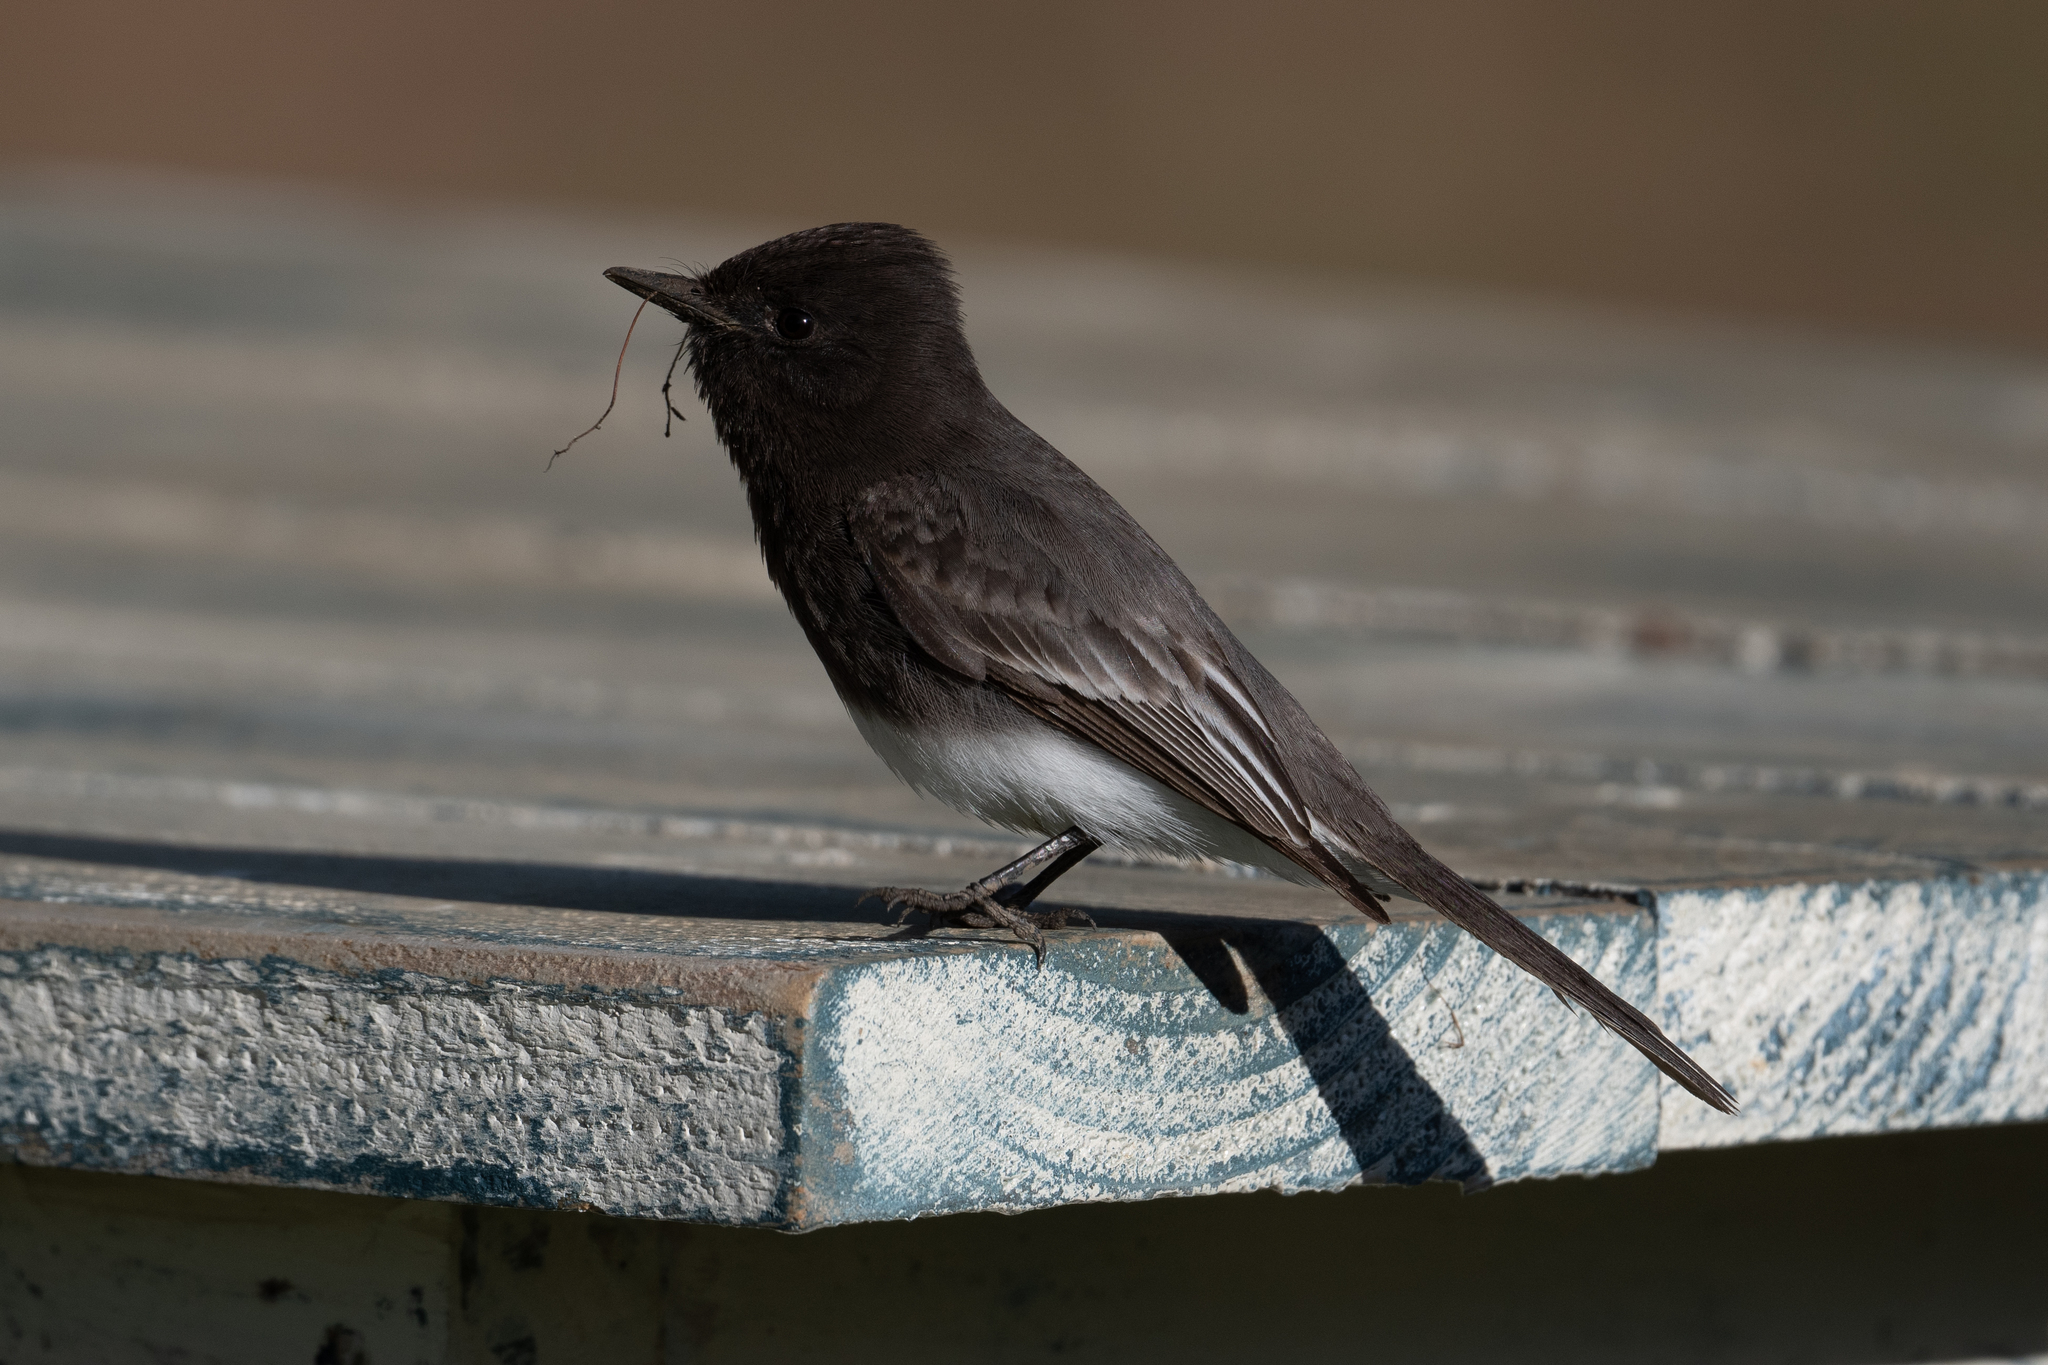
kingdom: Animalia
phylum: Chordata
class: Aves
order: Passeriformes
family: Tyrannidae
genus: Sayornis
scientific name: Sayornis nigricans
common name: Black phoebe
